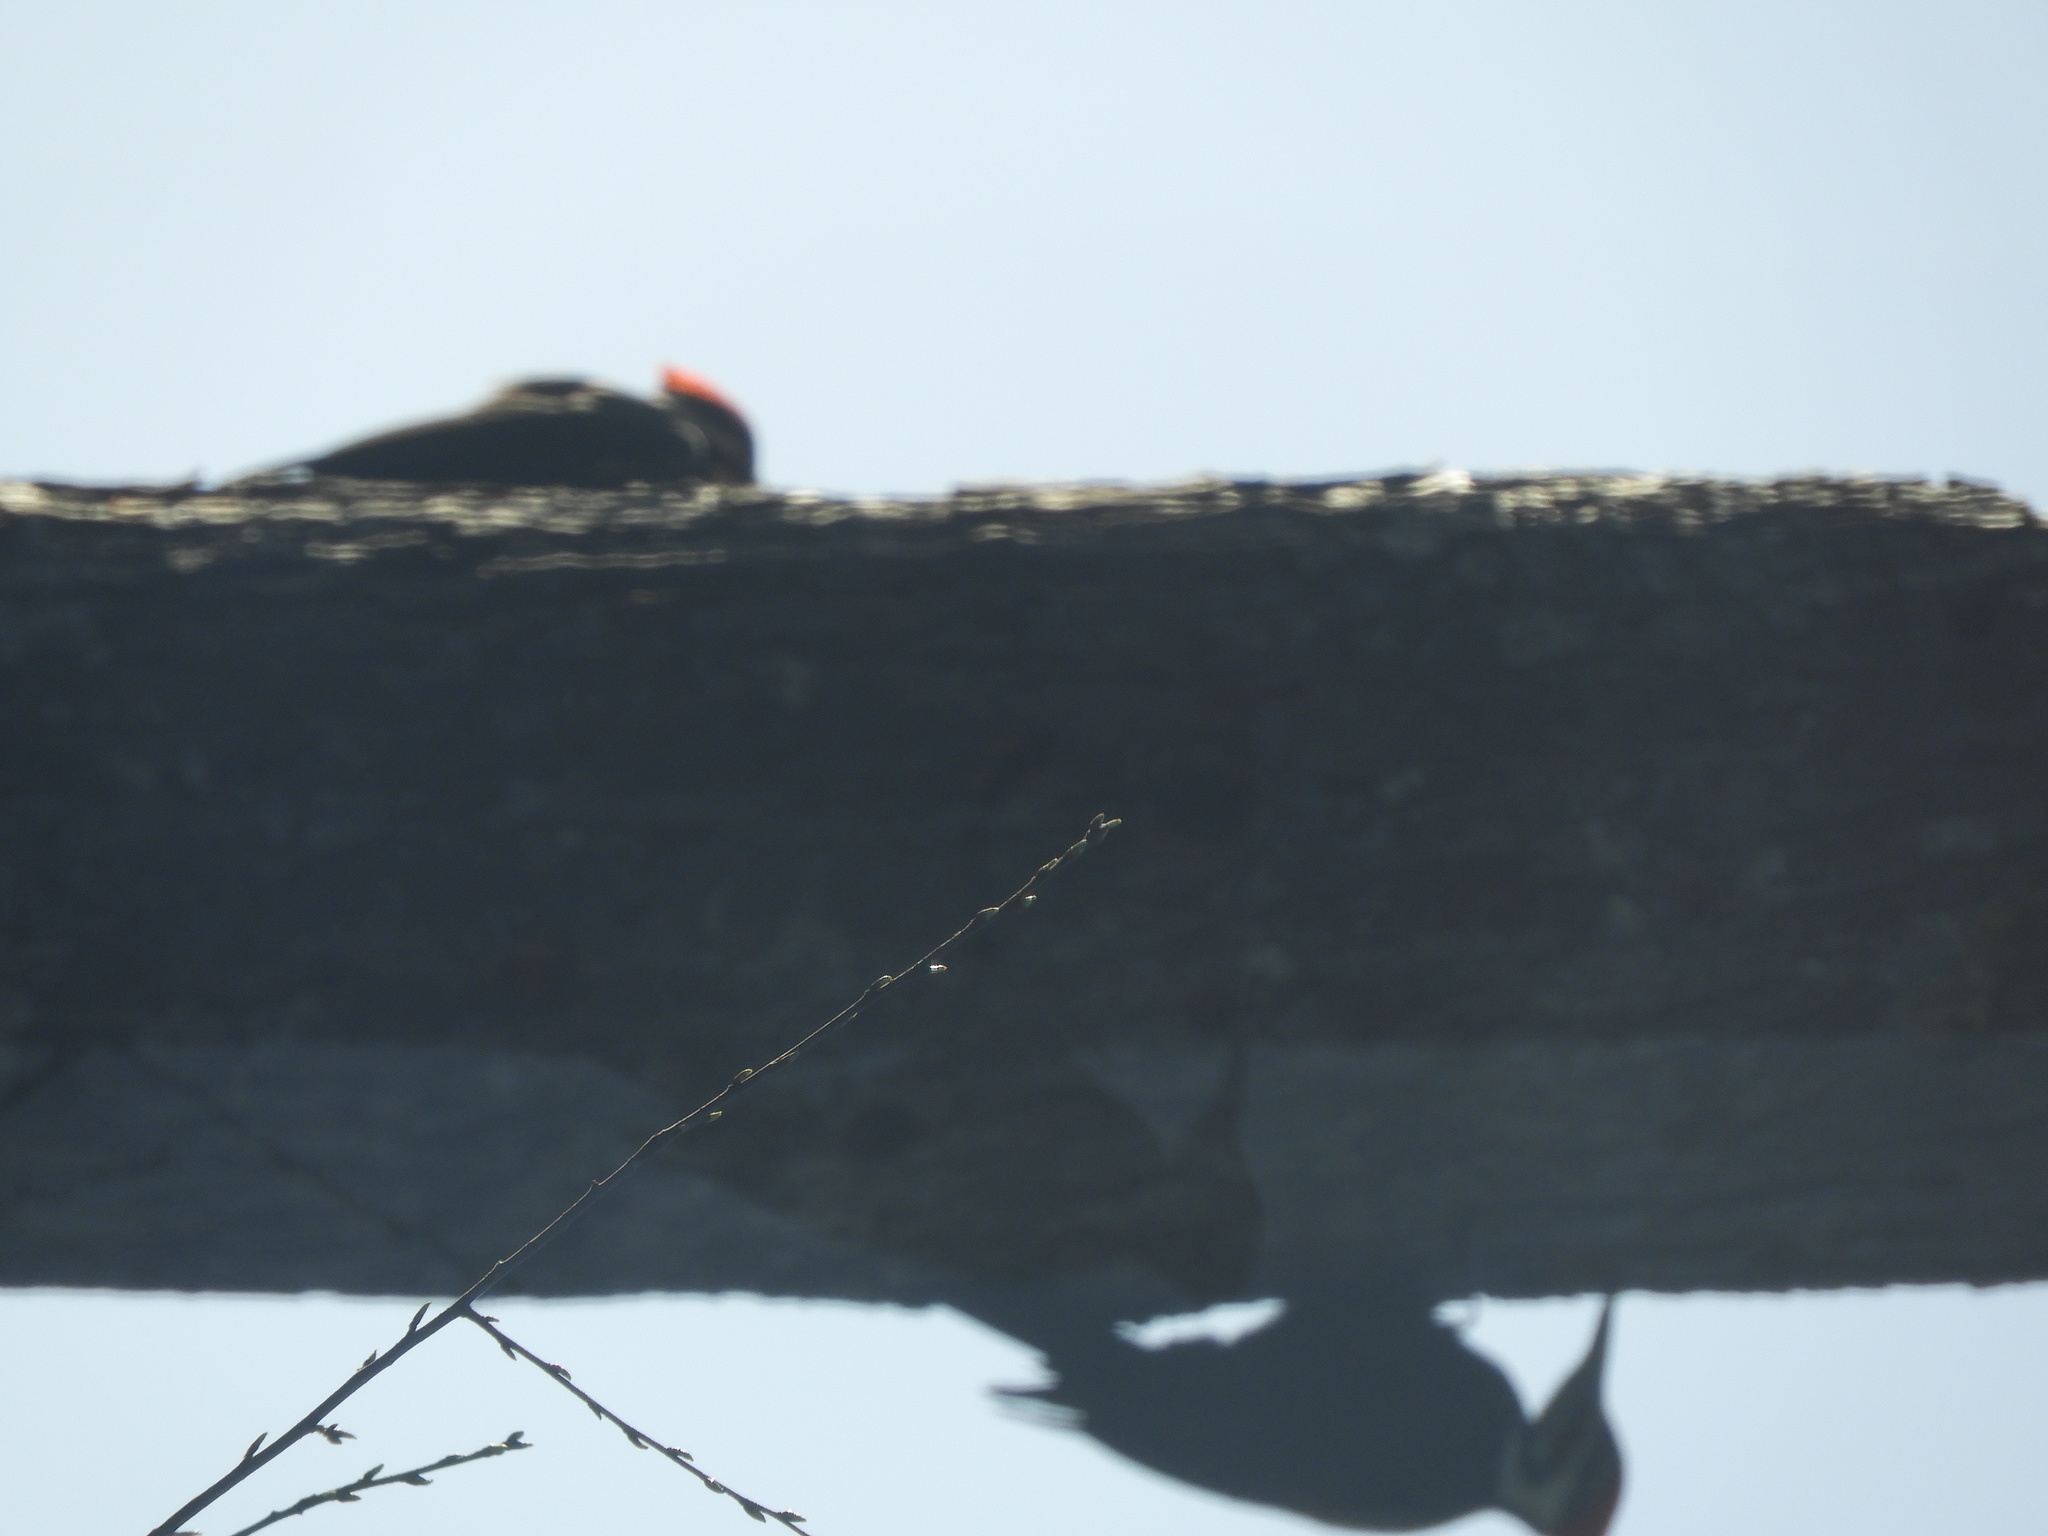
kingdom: Animalia
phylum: Chordata
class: Aves
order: Piciformes
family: Picidae
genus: Dryocopus
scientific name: Dryocopus pileatus
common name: Pileated woodpecker
